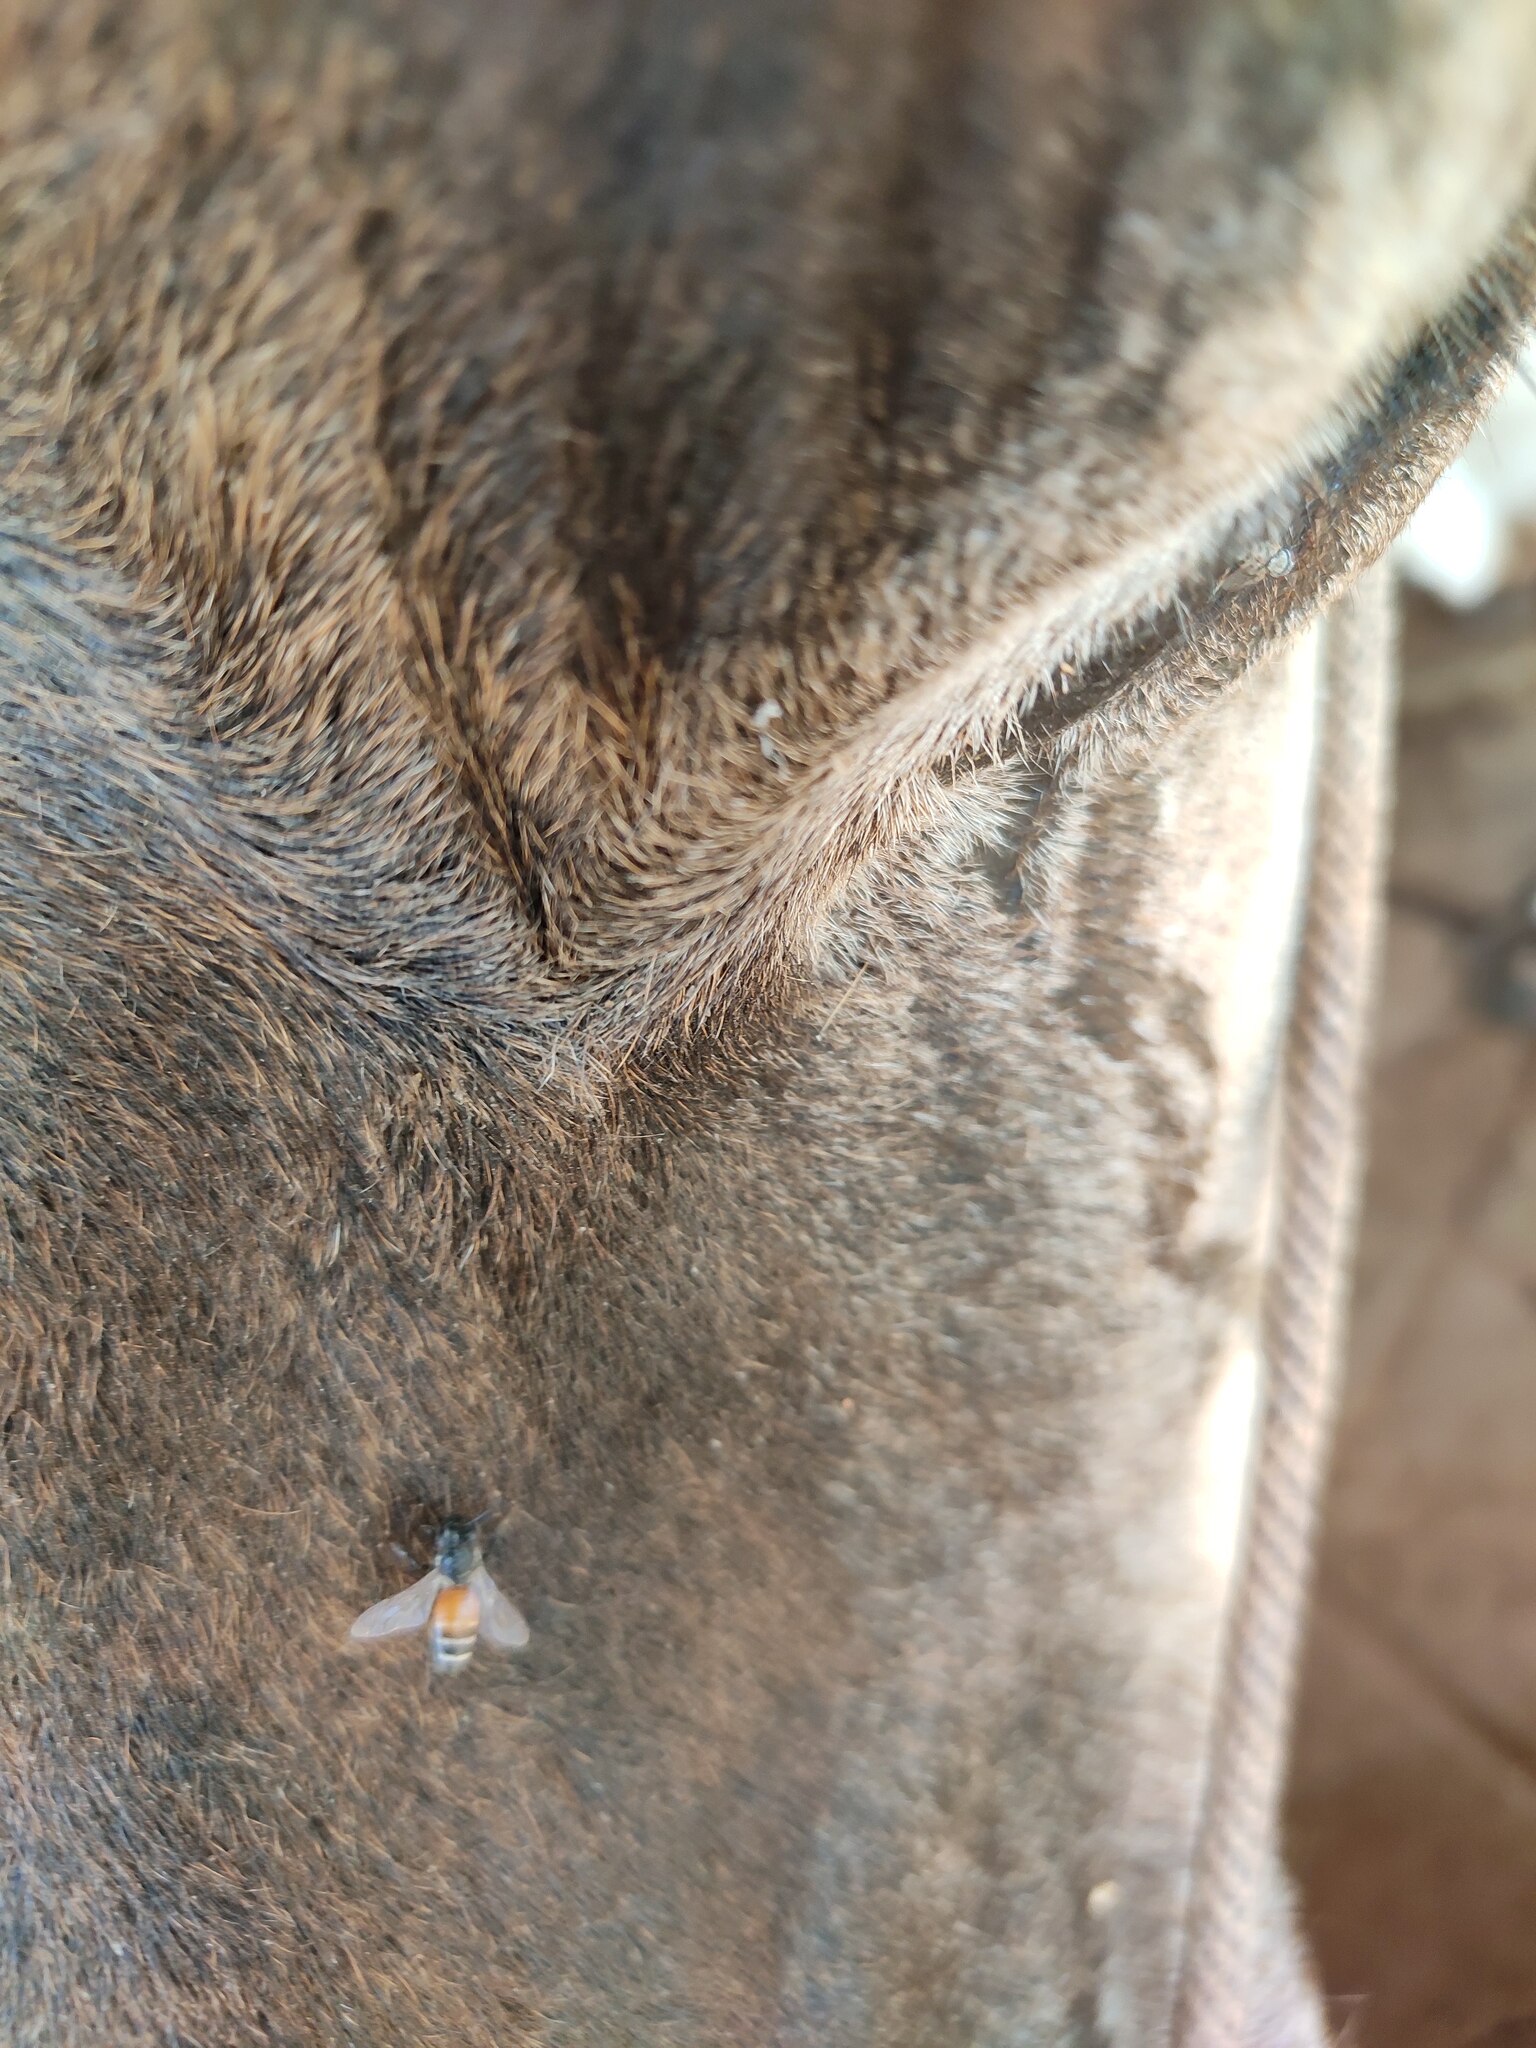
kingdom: Animalia
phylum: Arthropoda
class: Insecta
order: Hymenoptera
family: Apidae
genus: Apis
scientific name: Apis florea
